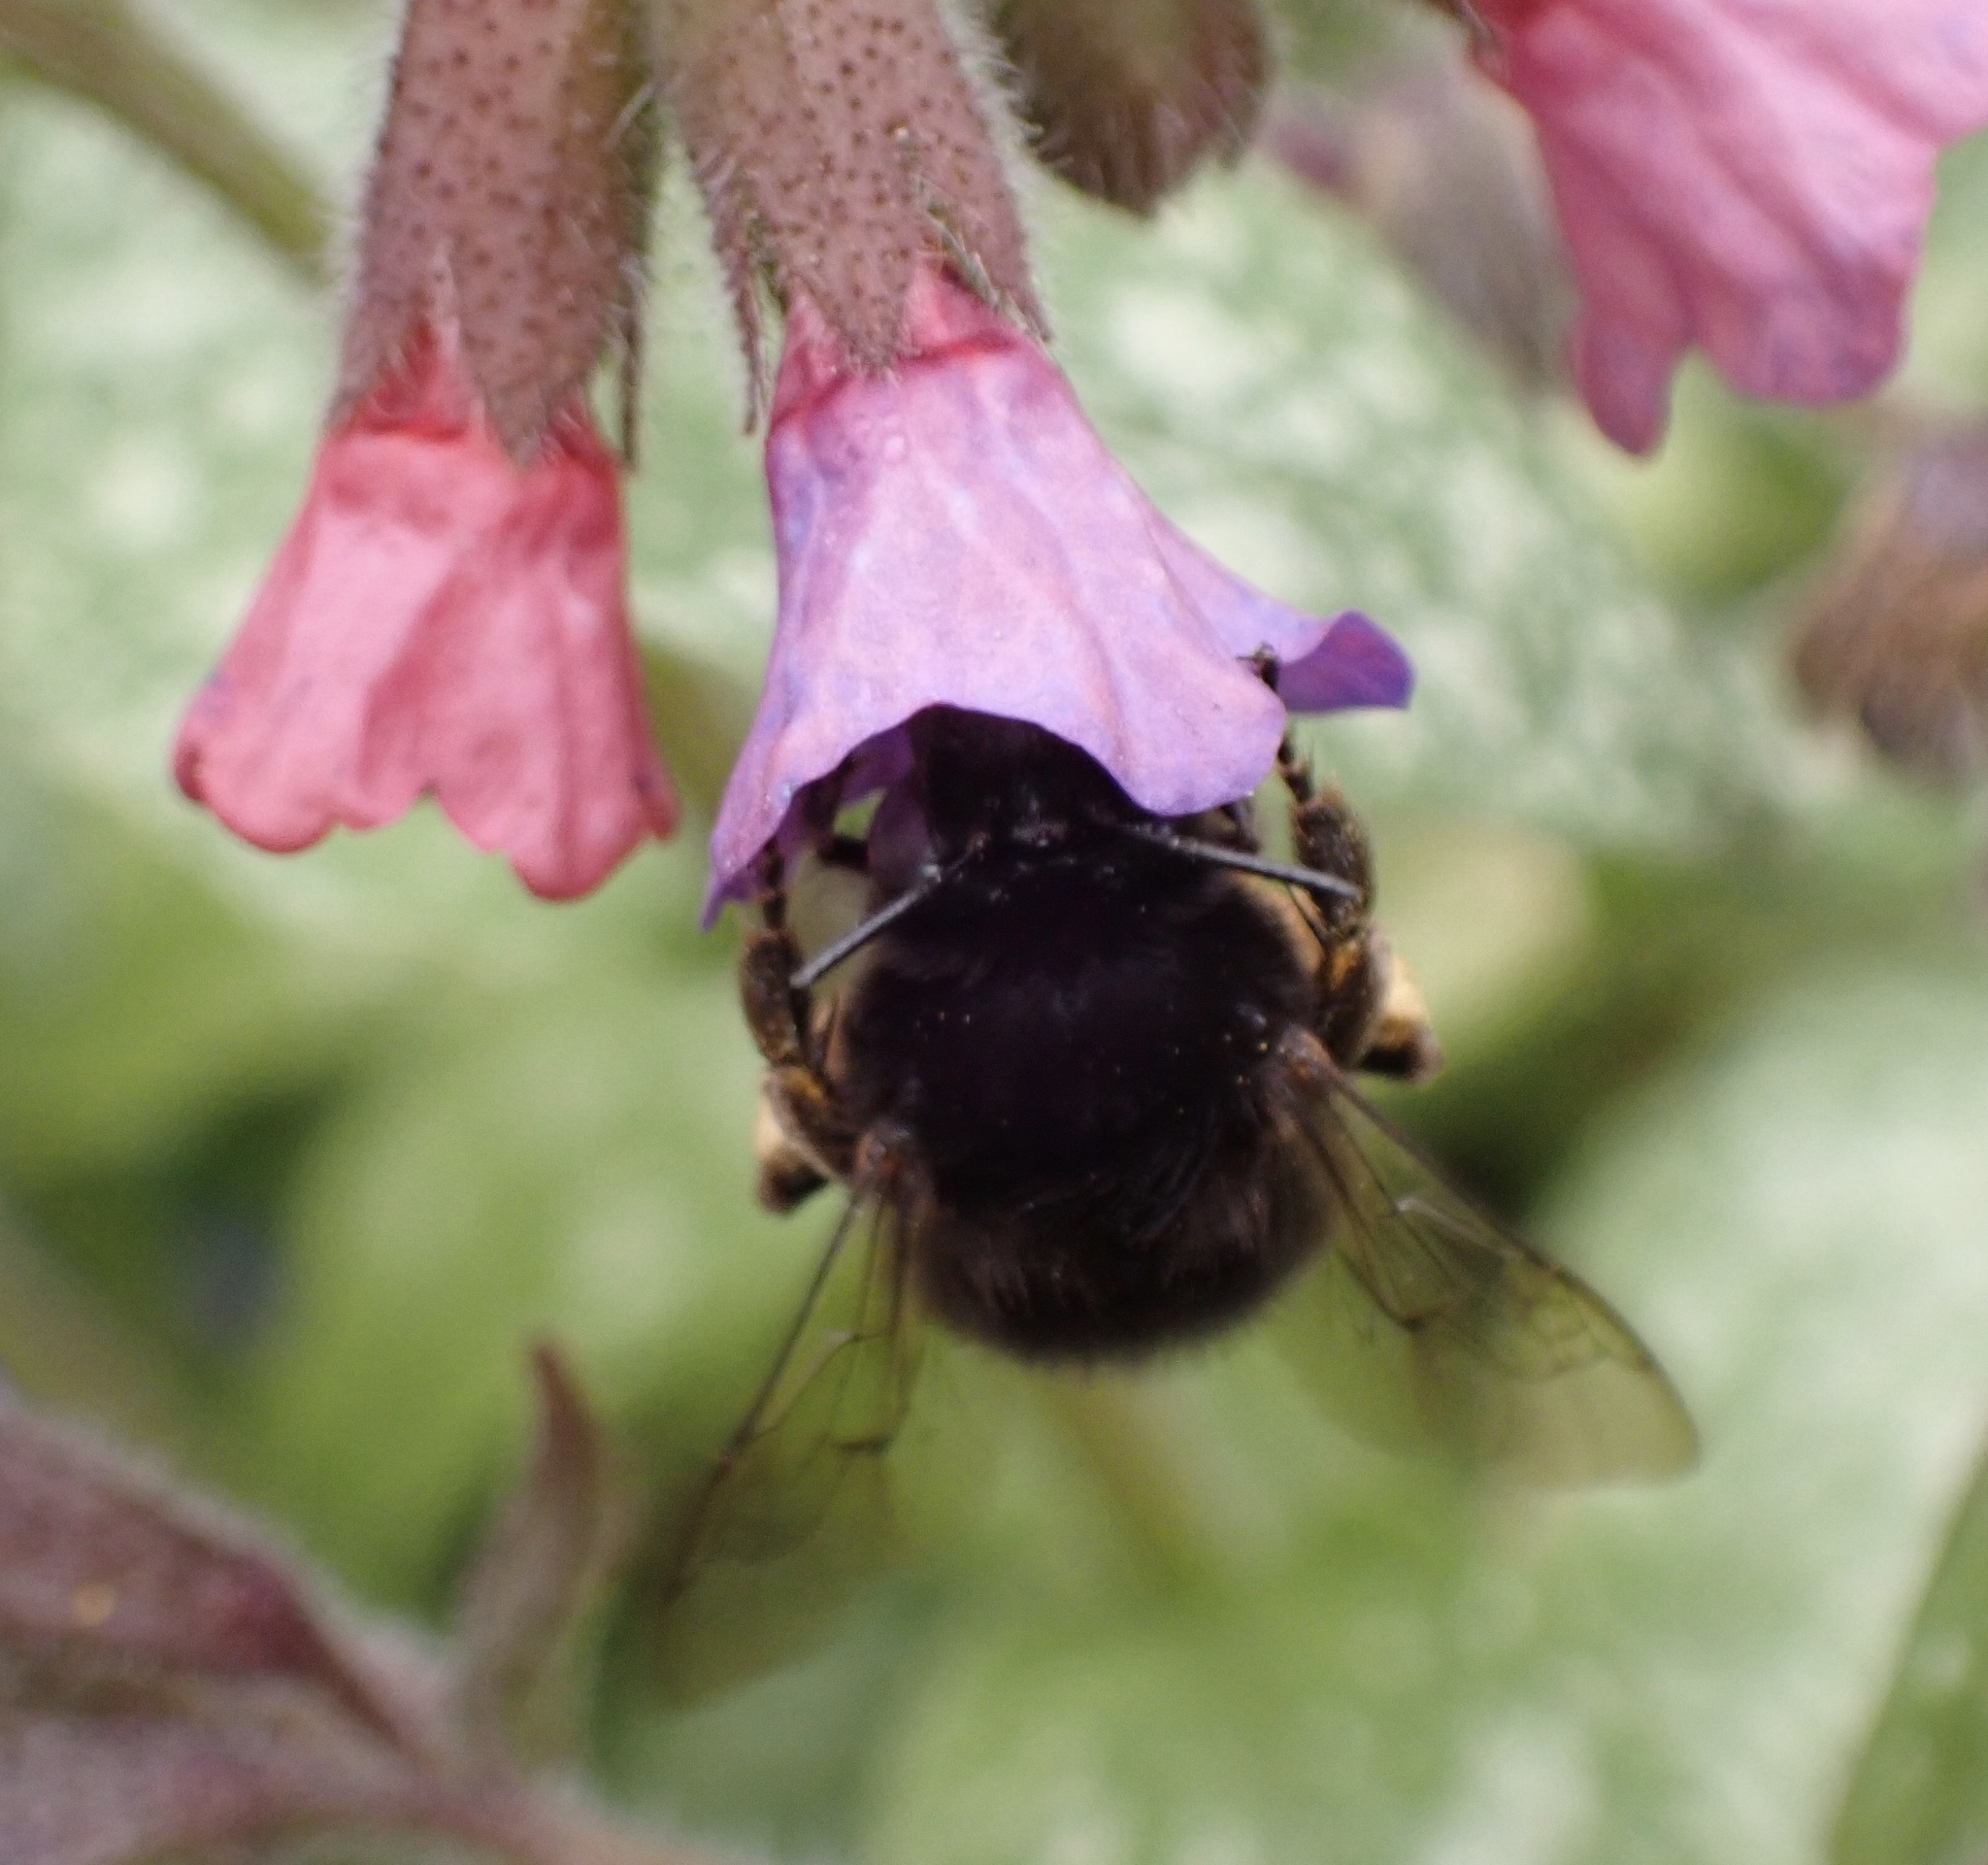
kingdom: Animalia
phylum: Arthropoda
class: Insecta
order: Hymenoptera
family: Apidae
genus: Anthophora
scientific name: Anthophora plumipes
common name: Hairy-footed flower bee
